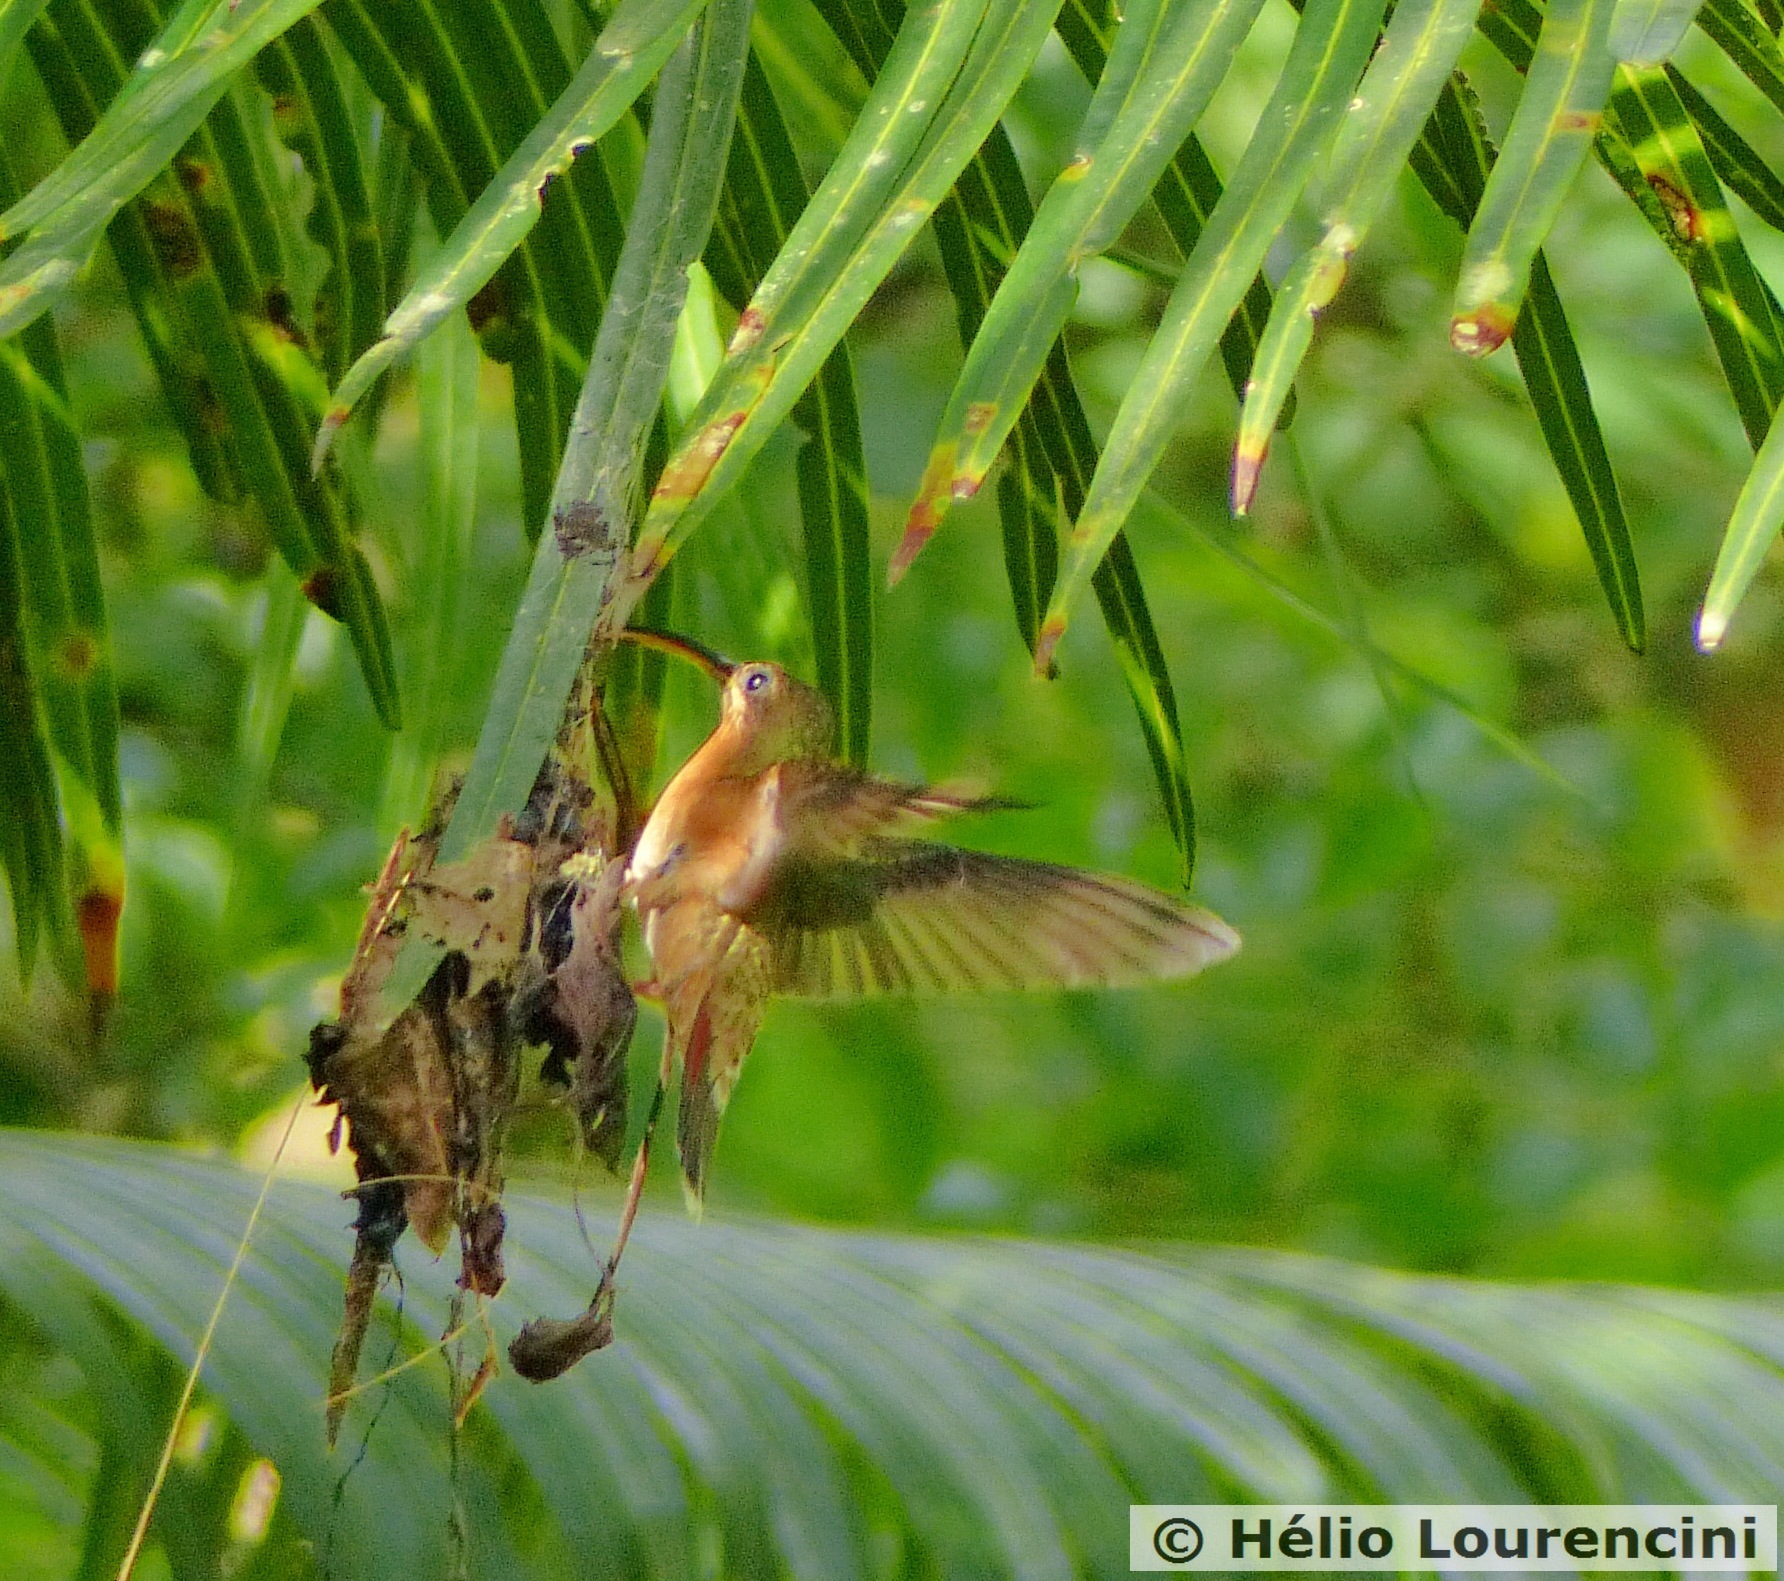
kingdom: Animalia
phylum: Chordata
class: Aves
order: Apodiformes
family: Trochilidae
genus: Glaucis
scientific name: Glaucis hirsutus
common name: Rufous-breasted hermit
